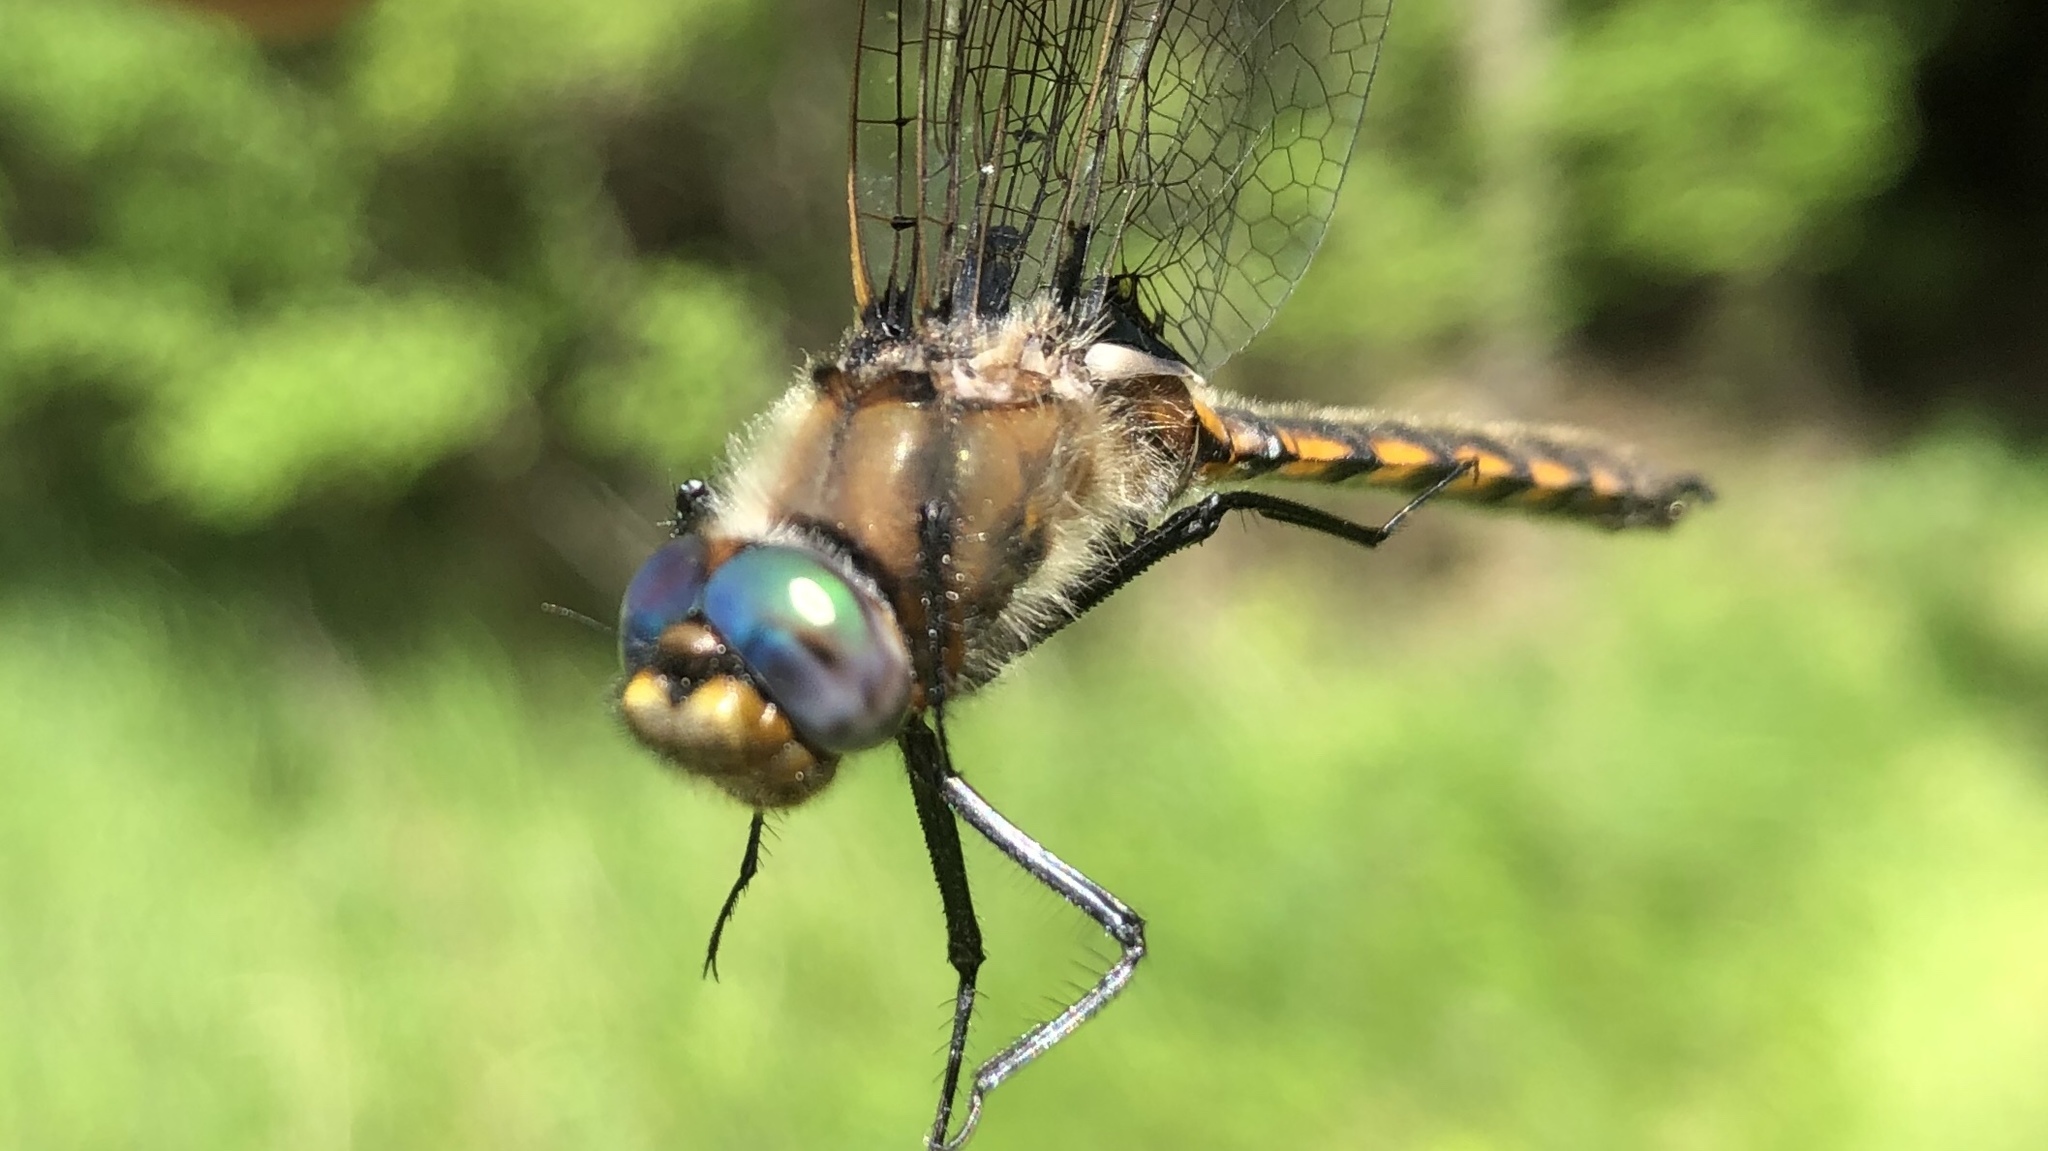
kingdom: Animalia
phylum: Arthropoda
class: Insecta
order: Odonata
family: Corduliidae
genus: Epitheca
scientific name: Epitheca canis
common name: Beaverpond baskettail
